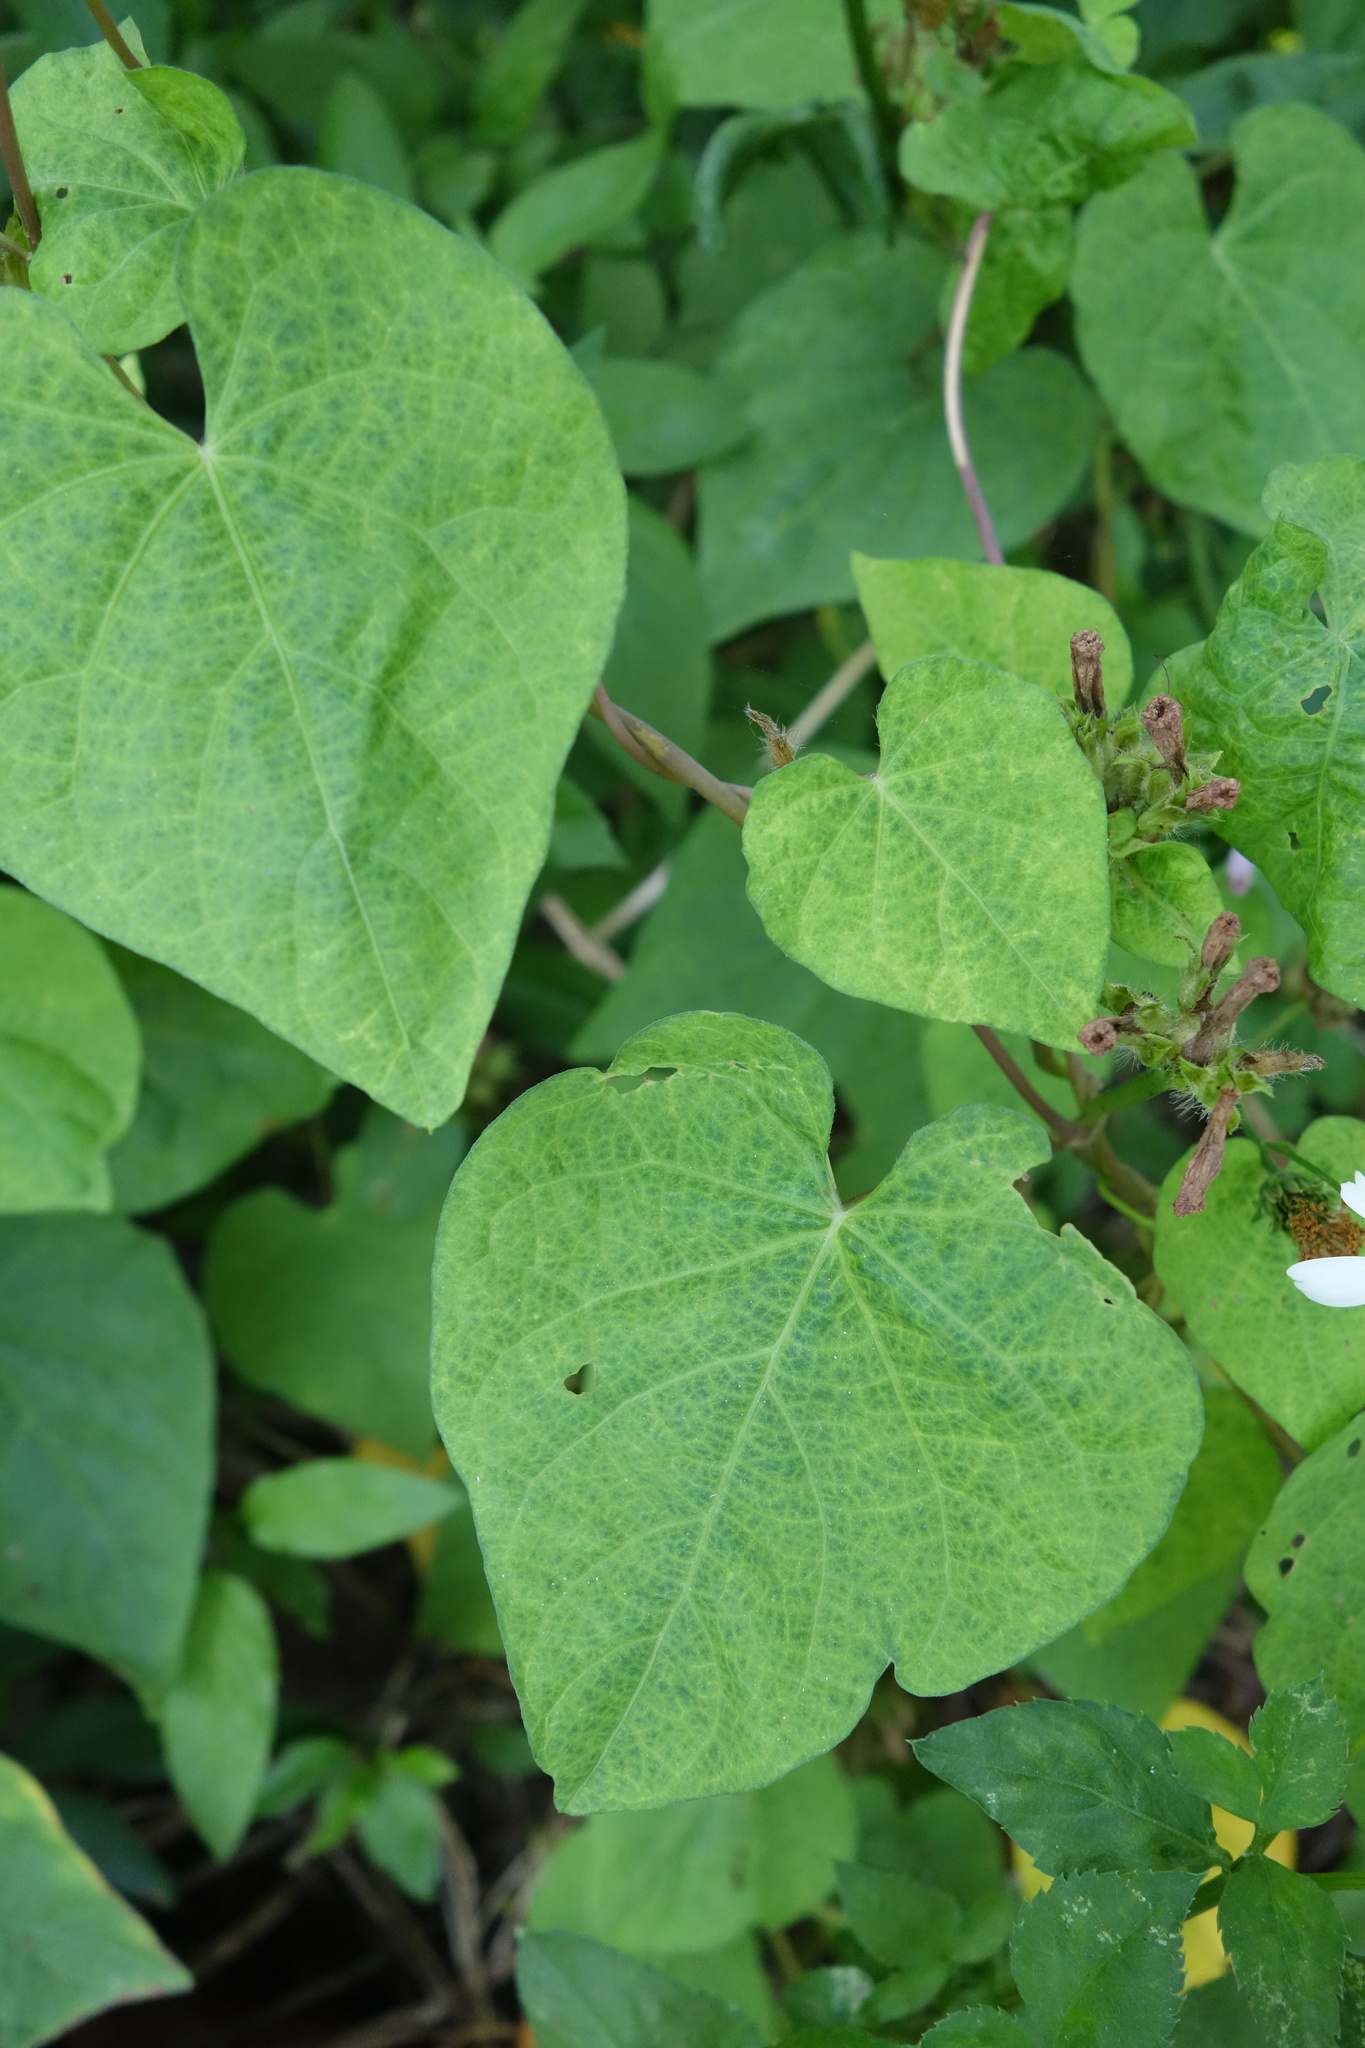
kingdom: Plantae
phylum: Tracheophyta
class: Magnoliopsida
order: Solanales
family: Convolvulaceae
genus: Ipomoea
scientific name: Ipomoea triloba
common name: Little-bell
